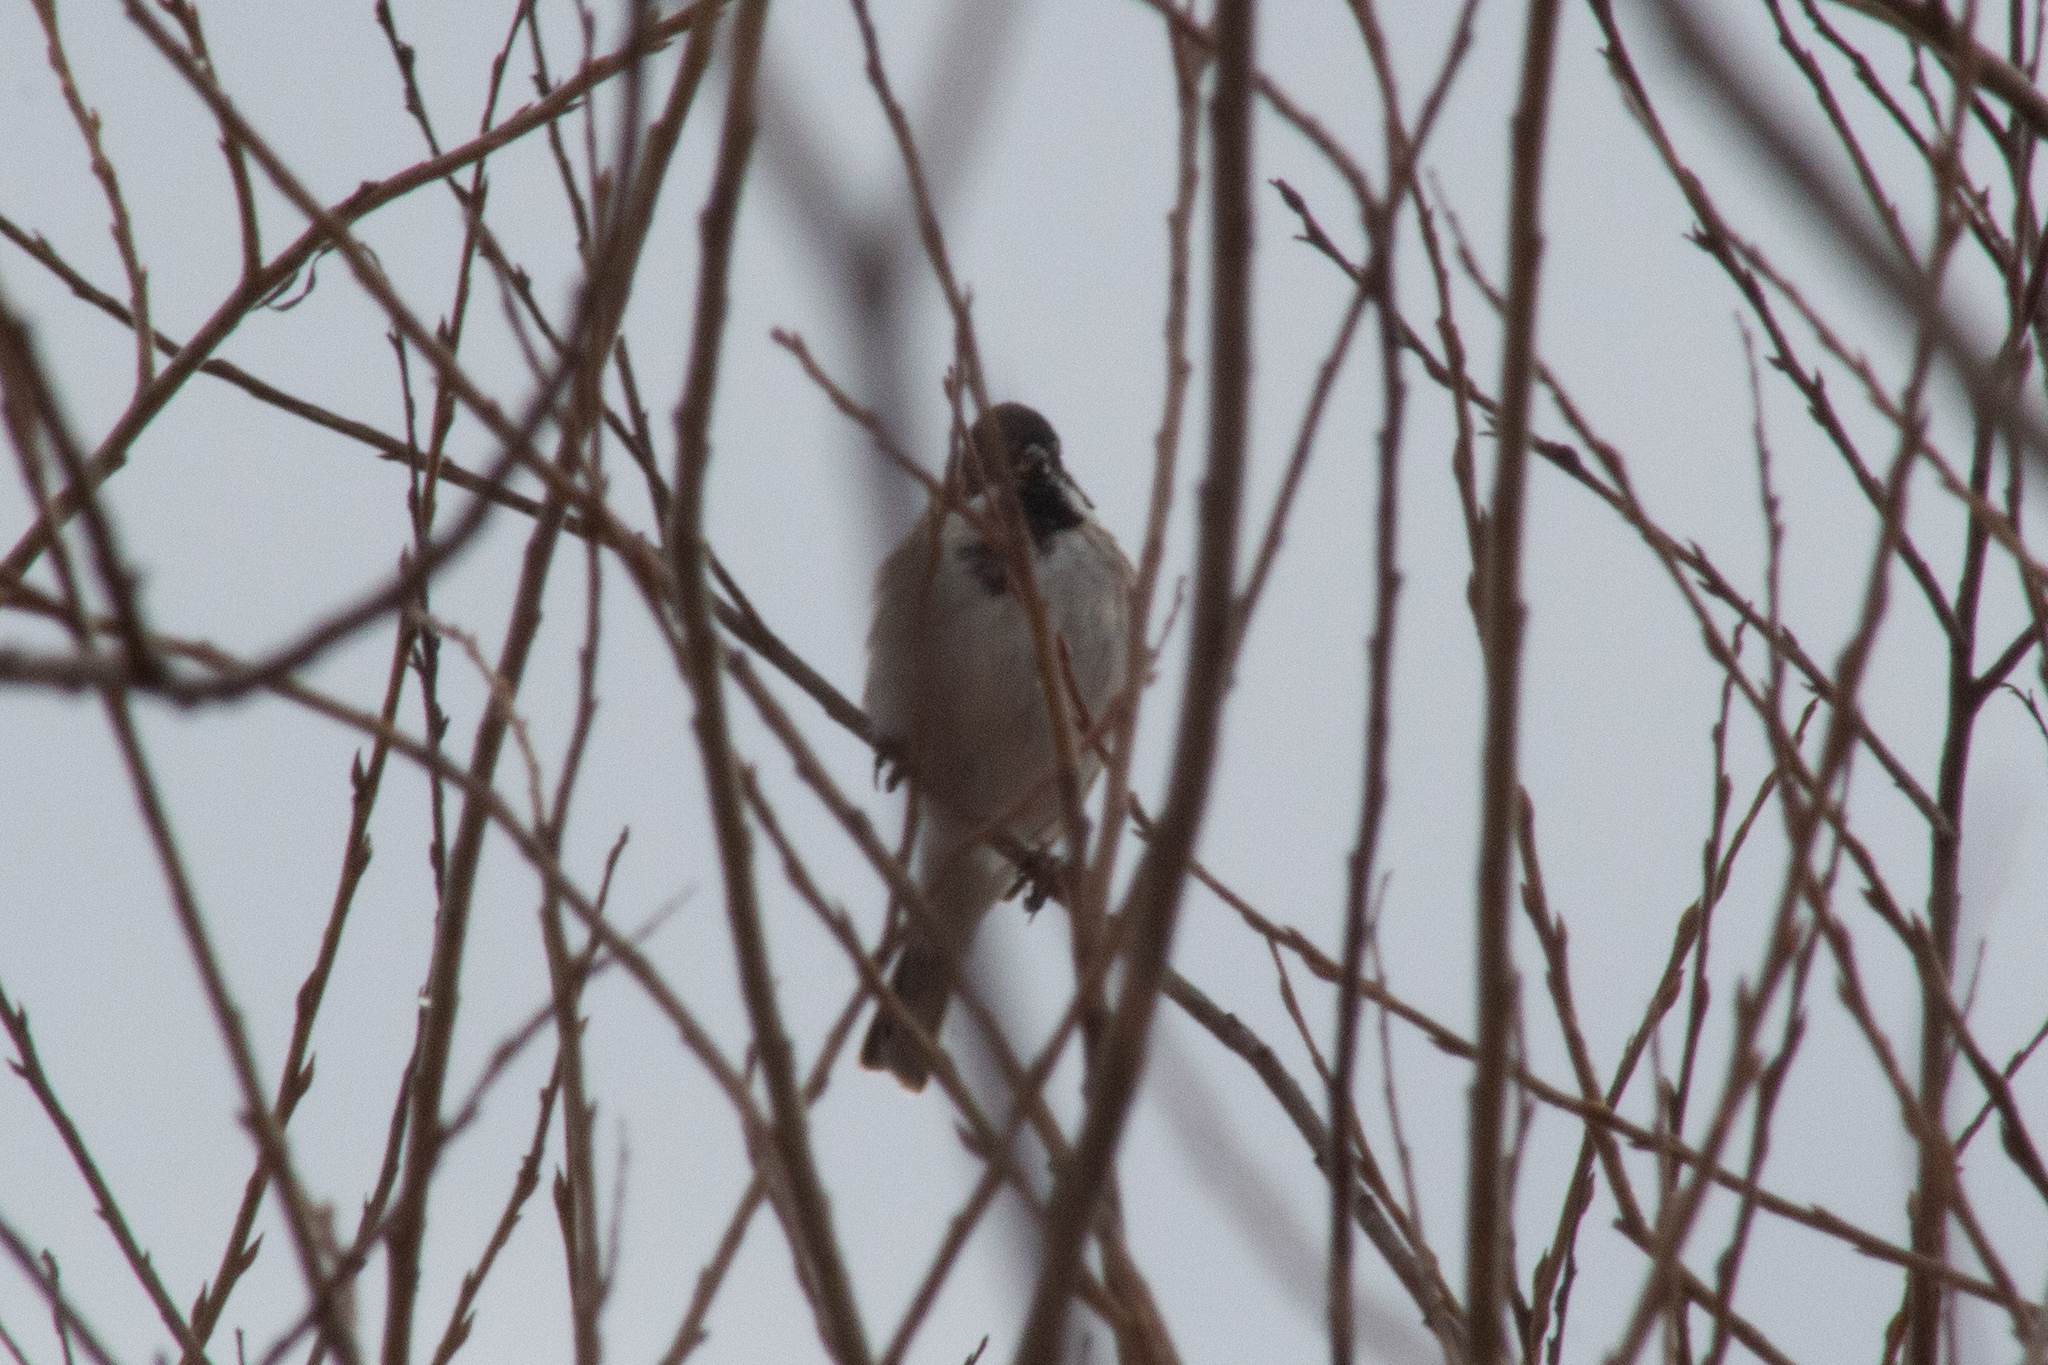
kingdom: Animalia
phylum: Chordata
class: Aves
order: Passeriformes
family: Emberizidae
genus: Emberiza
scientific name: Emberiza schoeniclus
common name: Reed bunting
